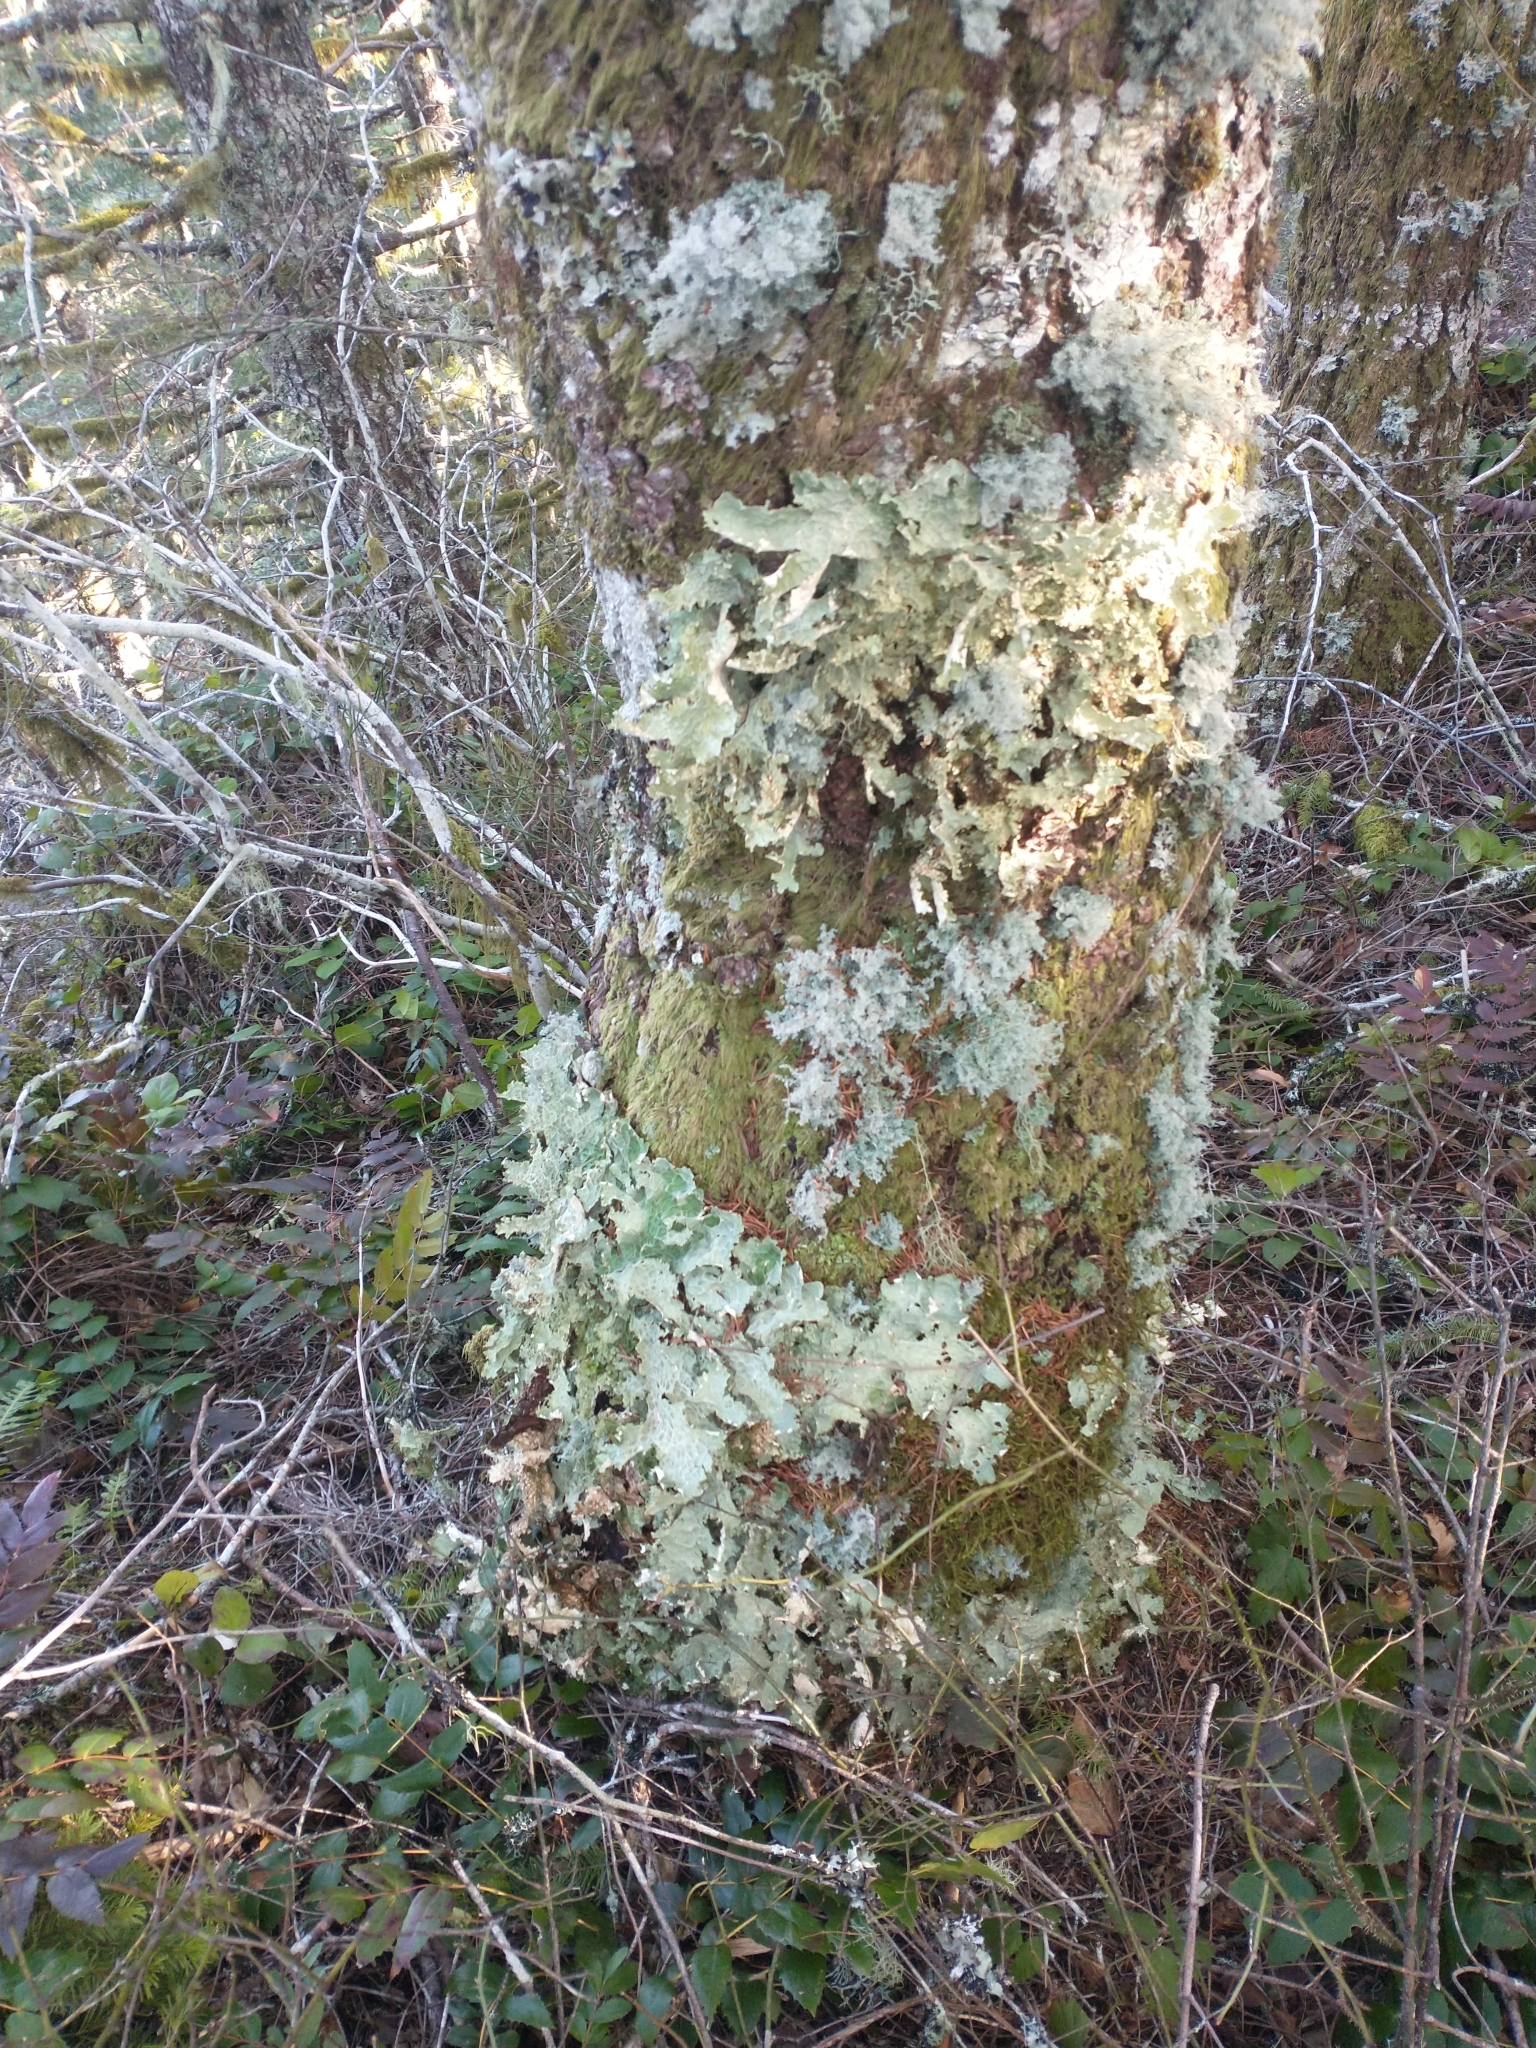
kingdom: Fungi
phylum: Ascomycota
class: Lecanoromycetes
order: Peltigerales
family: Lobariaceae
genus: Lobaria
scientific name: Lobaria oregana
